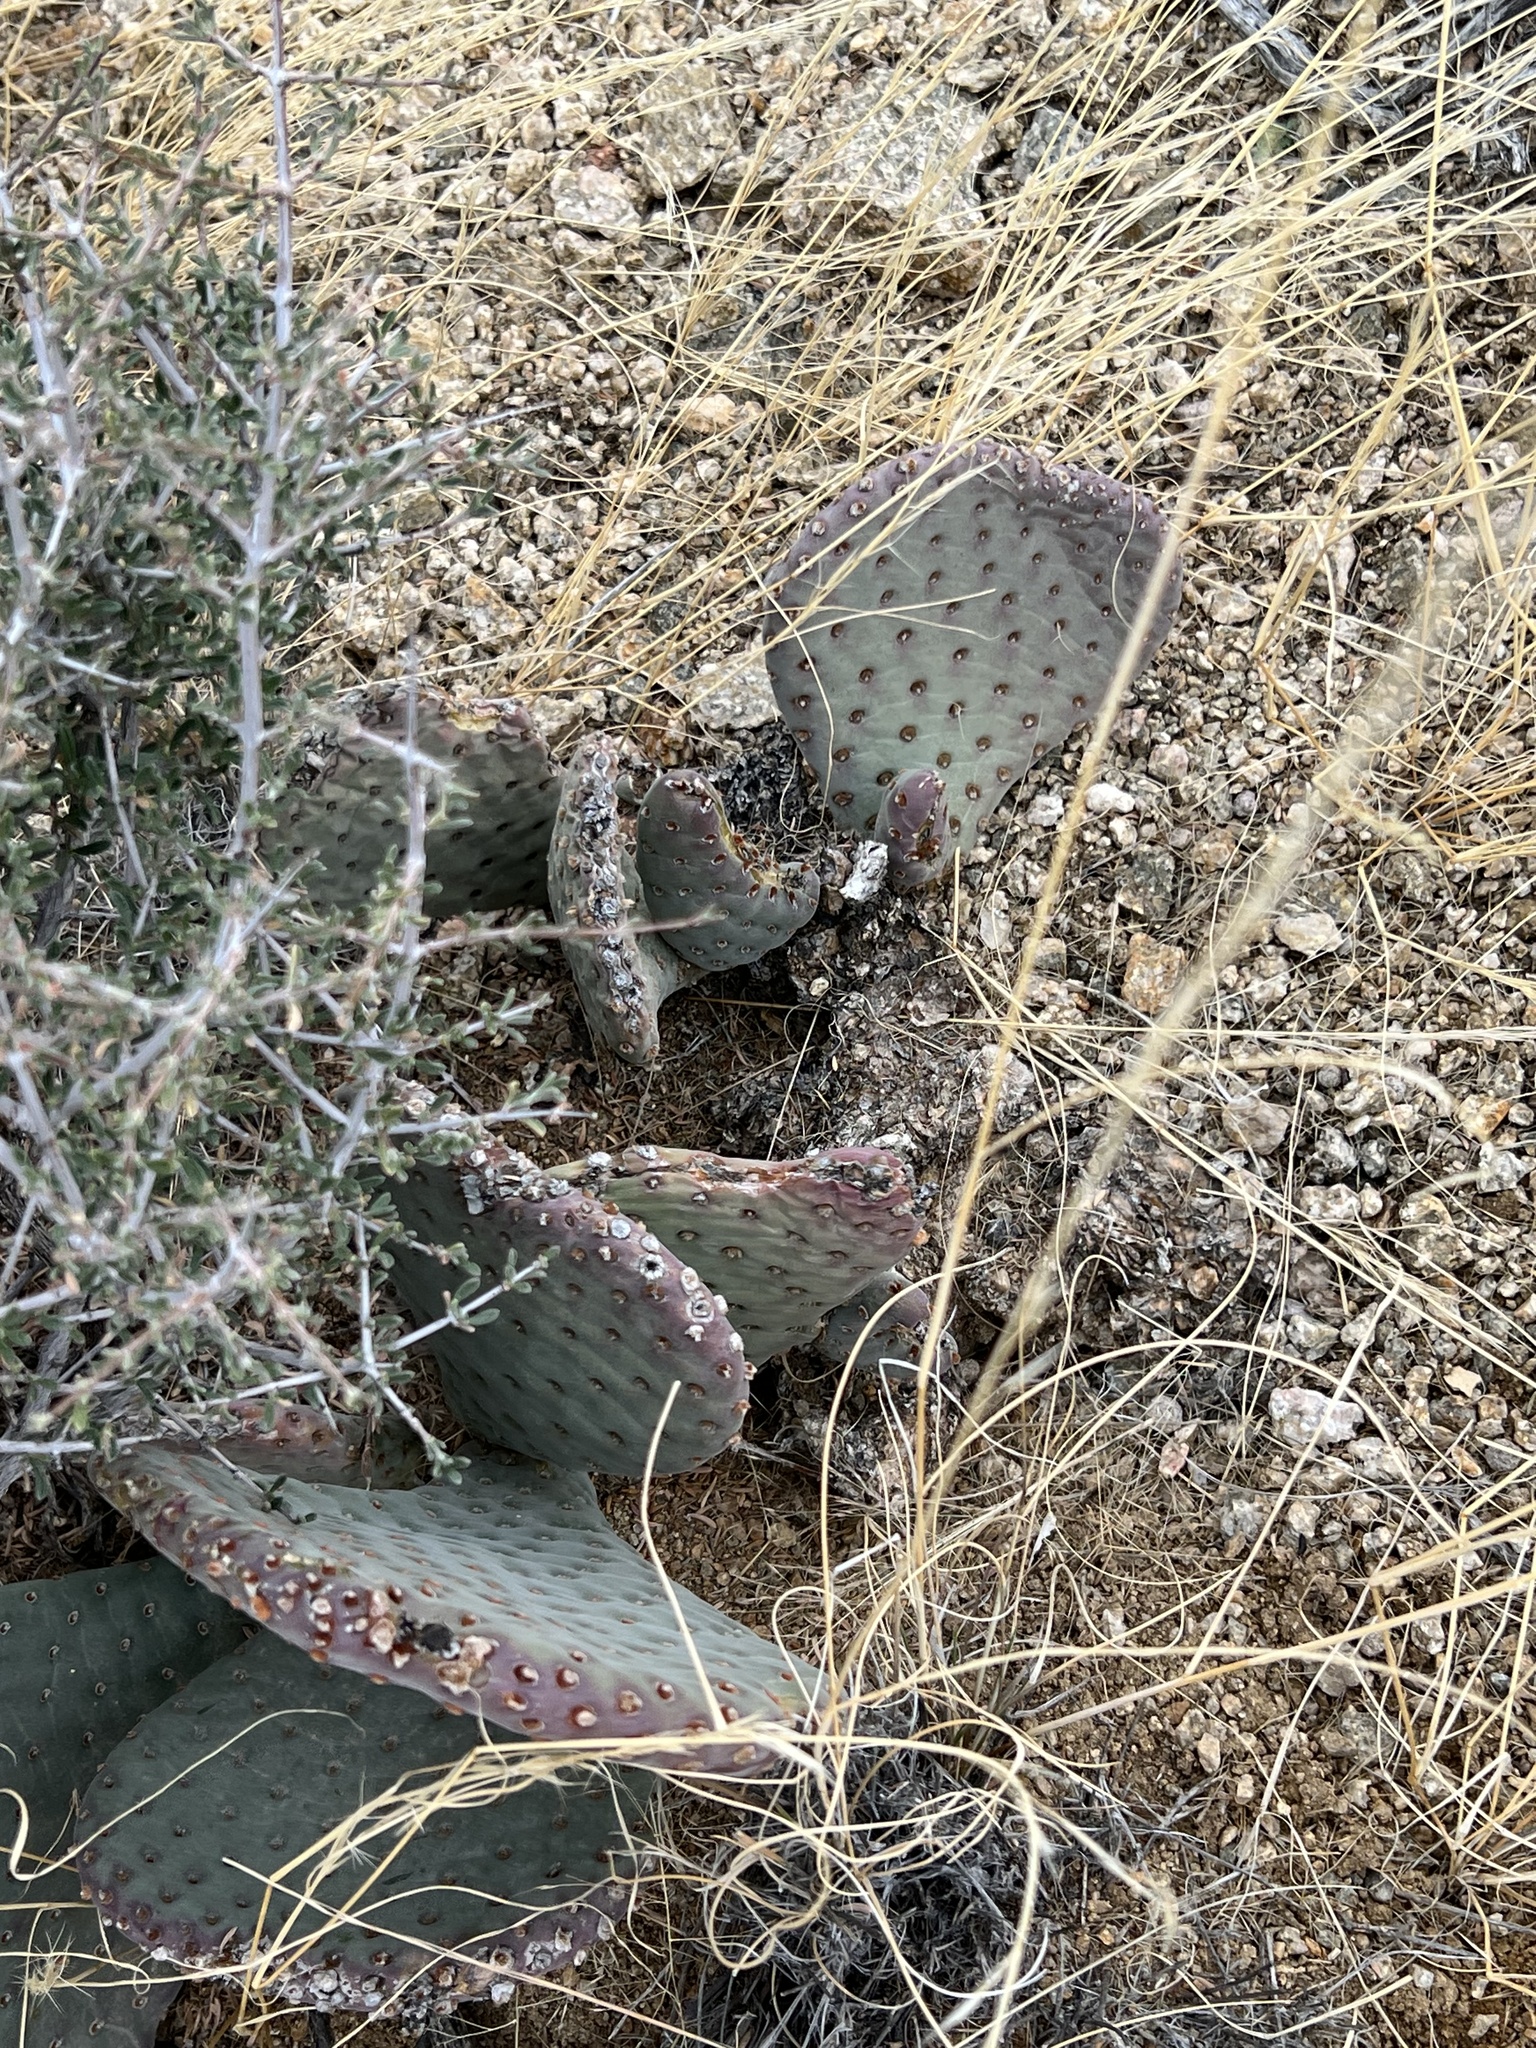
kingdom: Plantae
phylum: Tracheophyta
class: Magnoliopsida
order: Caryophyllales
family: Cactaceae
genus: Opuntia
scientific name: Opuntia basilaris
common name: Beavertail prickly-pear
